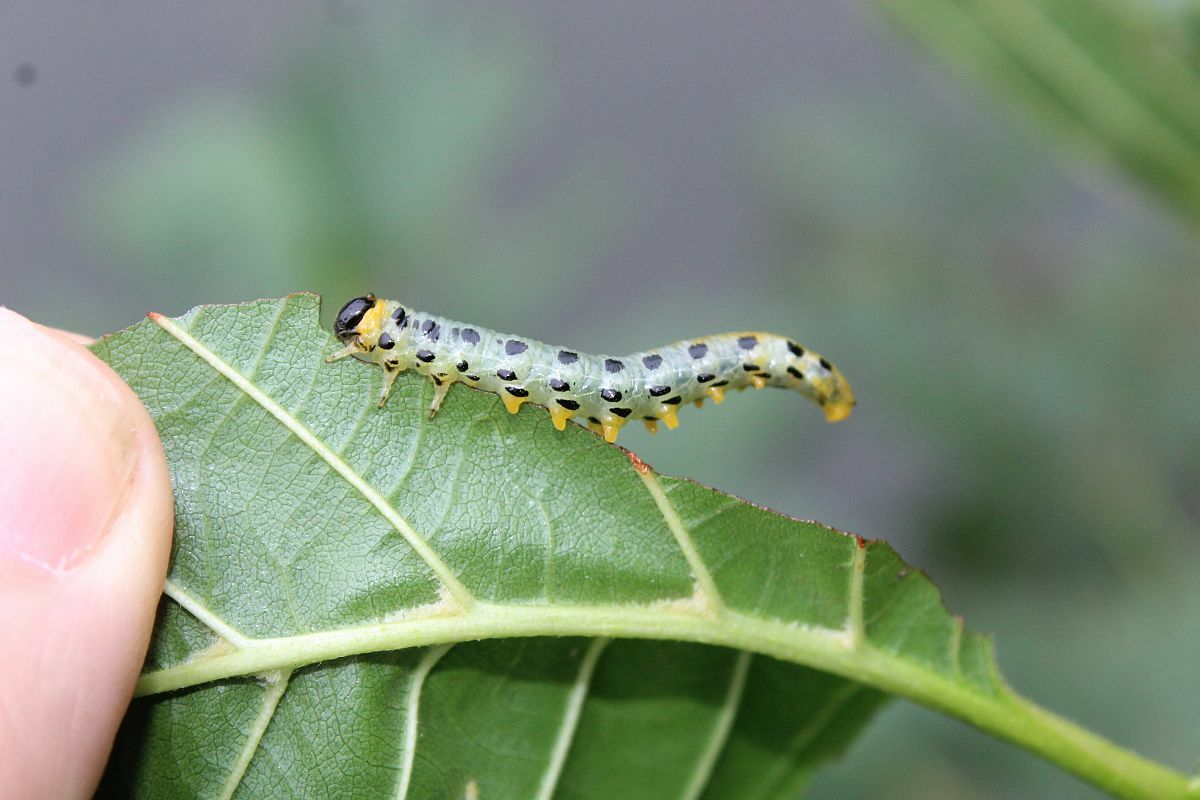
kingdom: Animalia
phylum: Arthropoda
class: Insecta
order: Hymenoptera
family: Tenthredinidae
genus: Craesus
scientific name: Craesus septentrionalis
